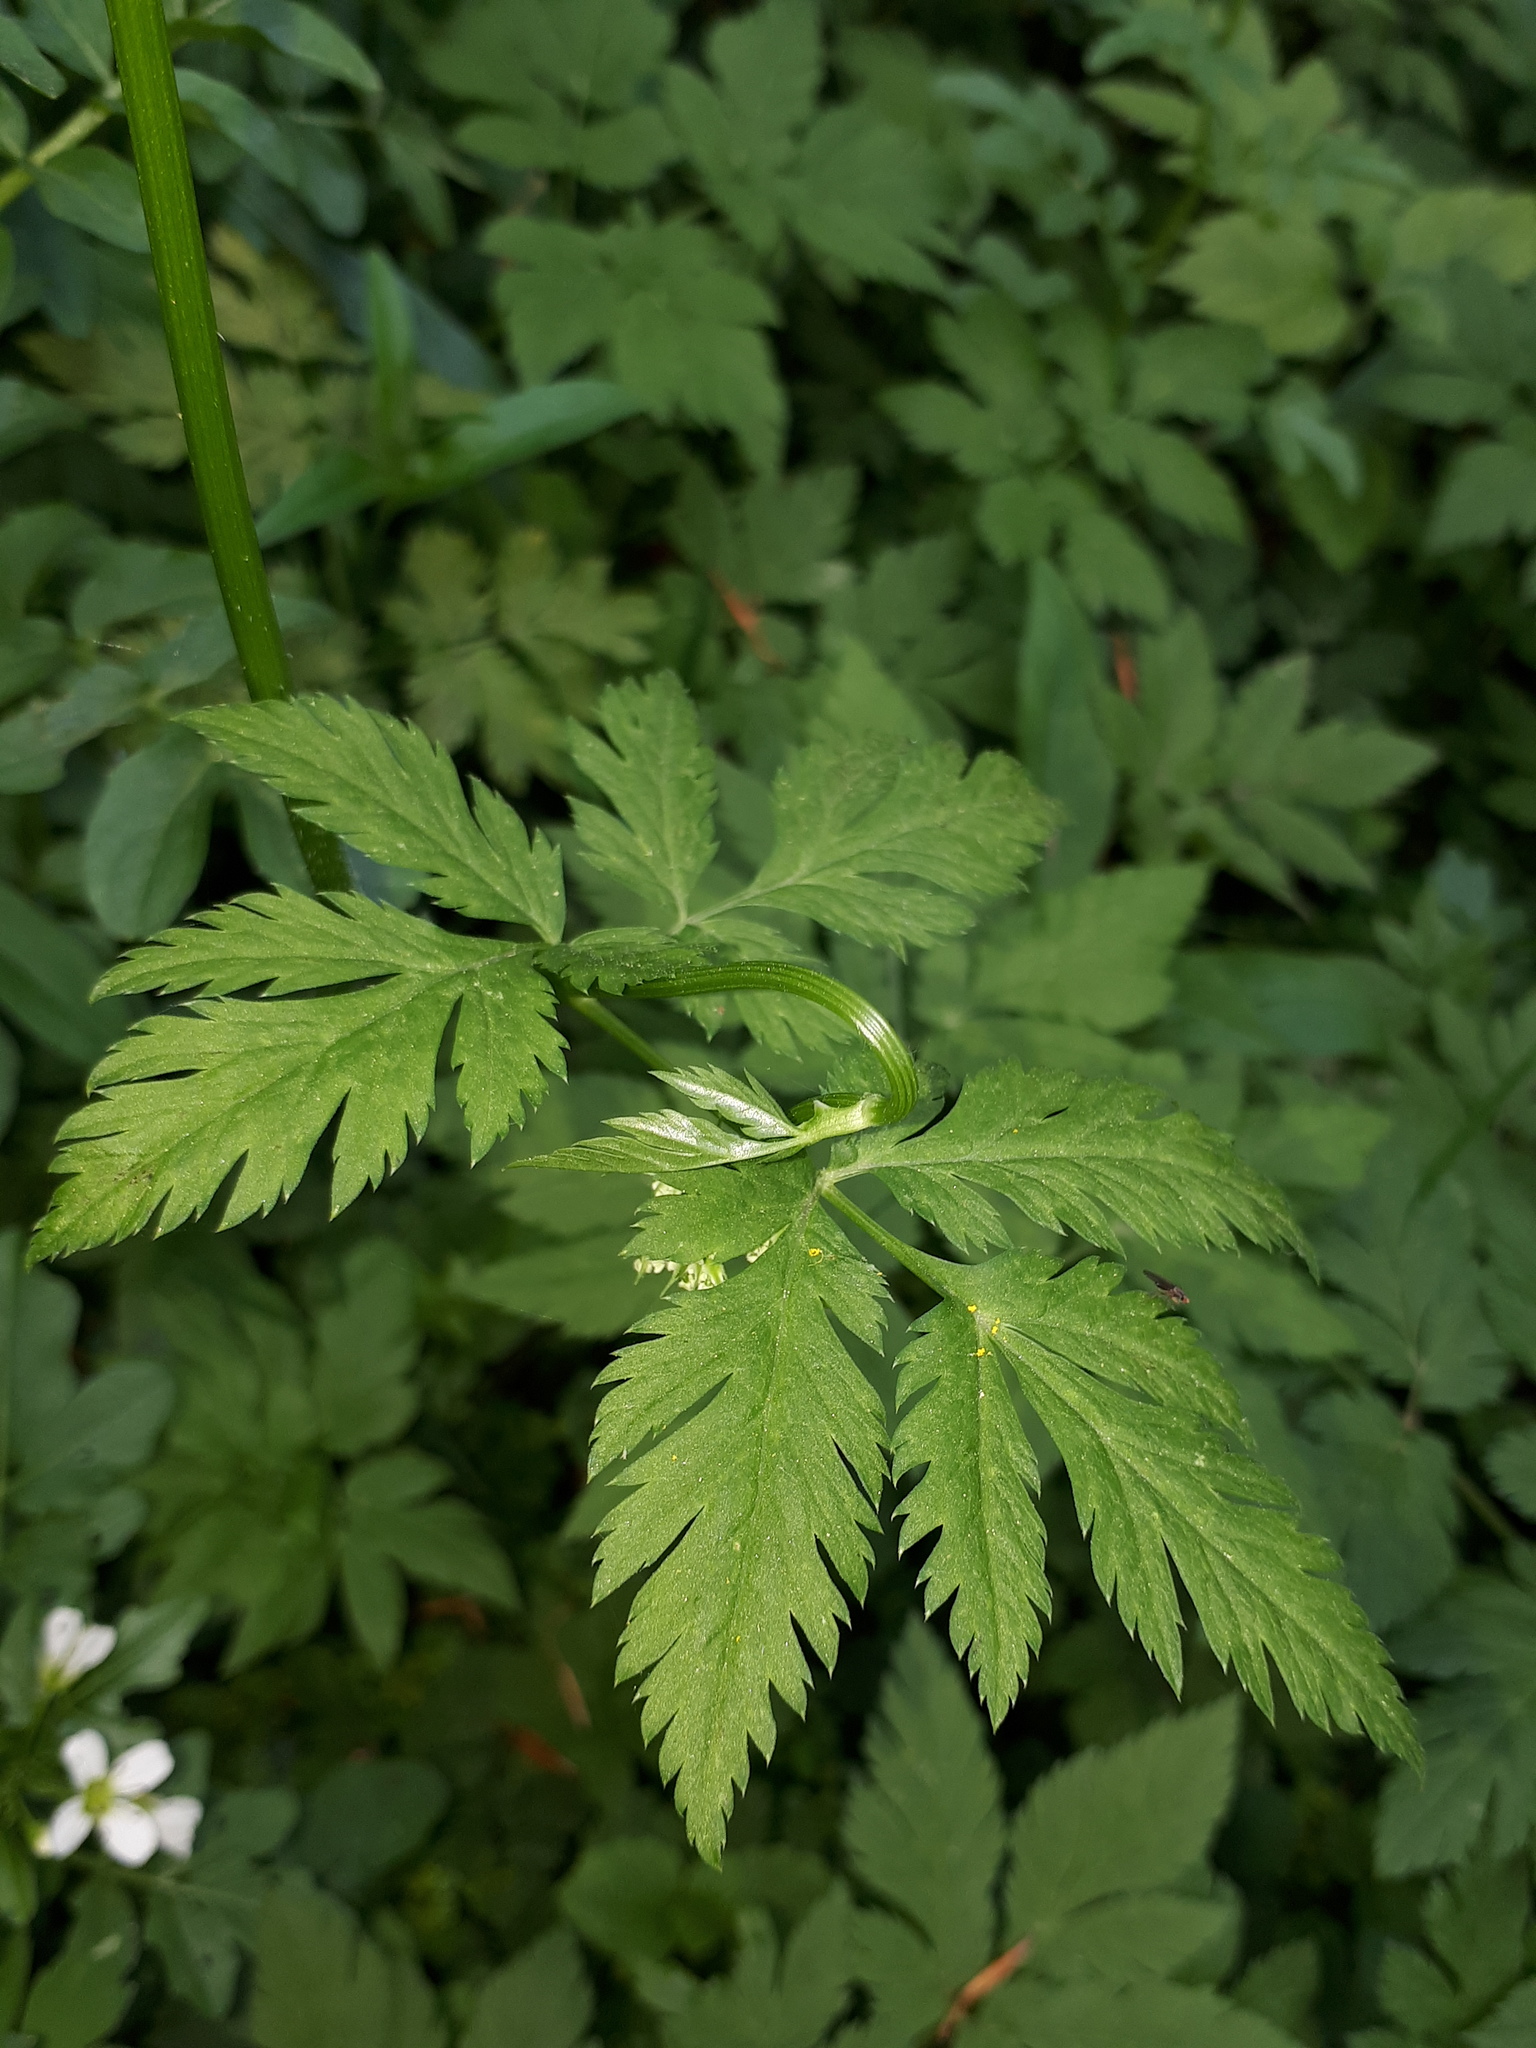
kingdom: Plantae
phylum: Tracheophyta
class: Magnoliopsida
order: Apiales
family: Apiaceae
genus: Chaerophyllum
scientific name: Chaerophyllum hirsutum
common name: Hairy chervil
